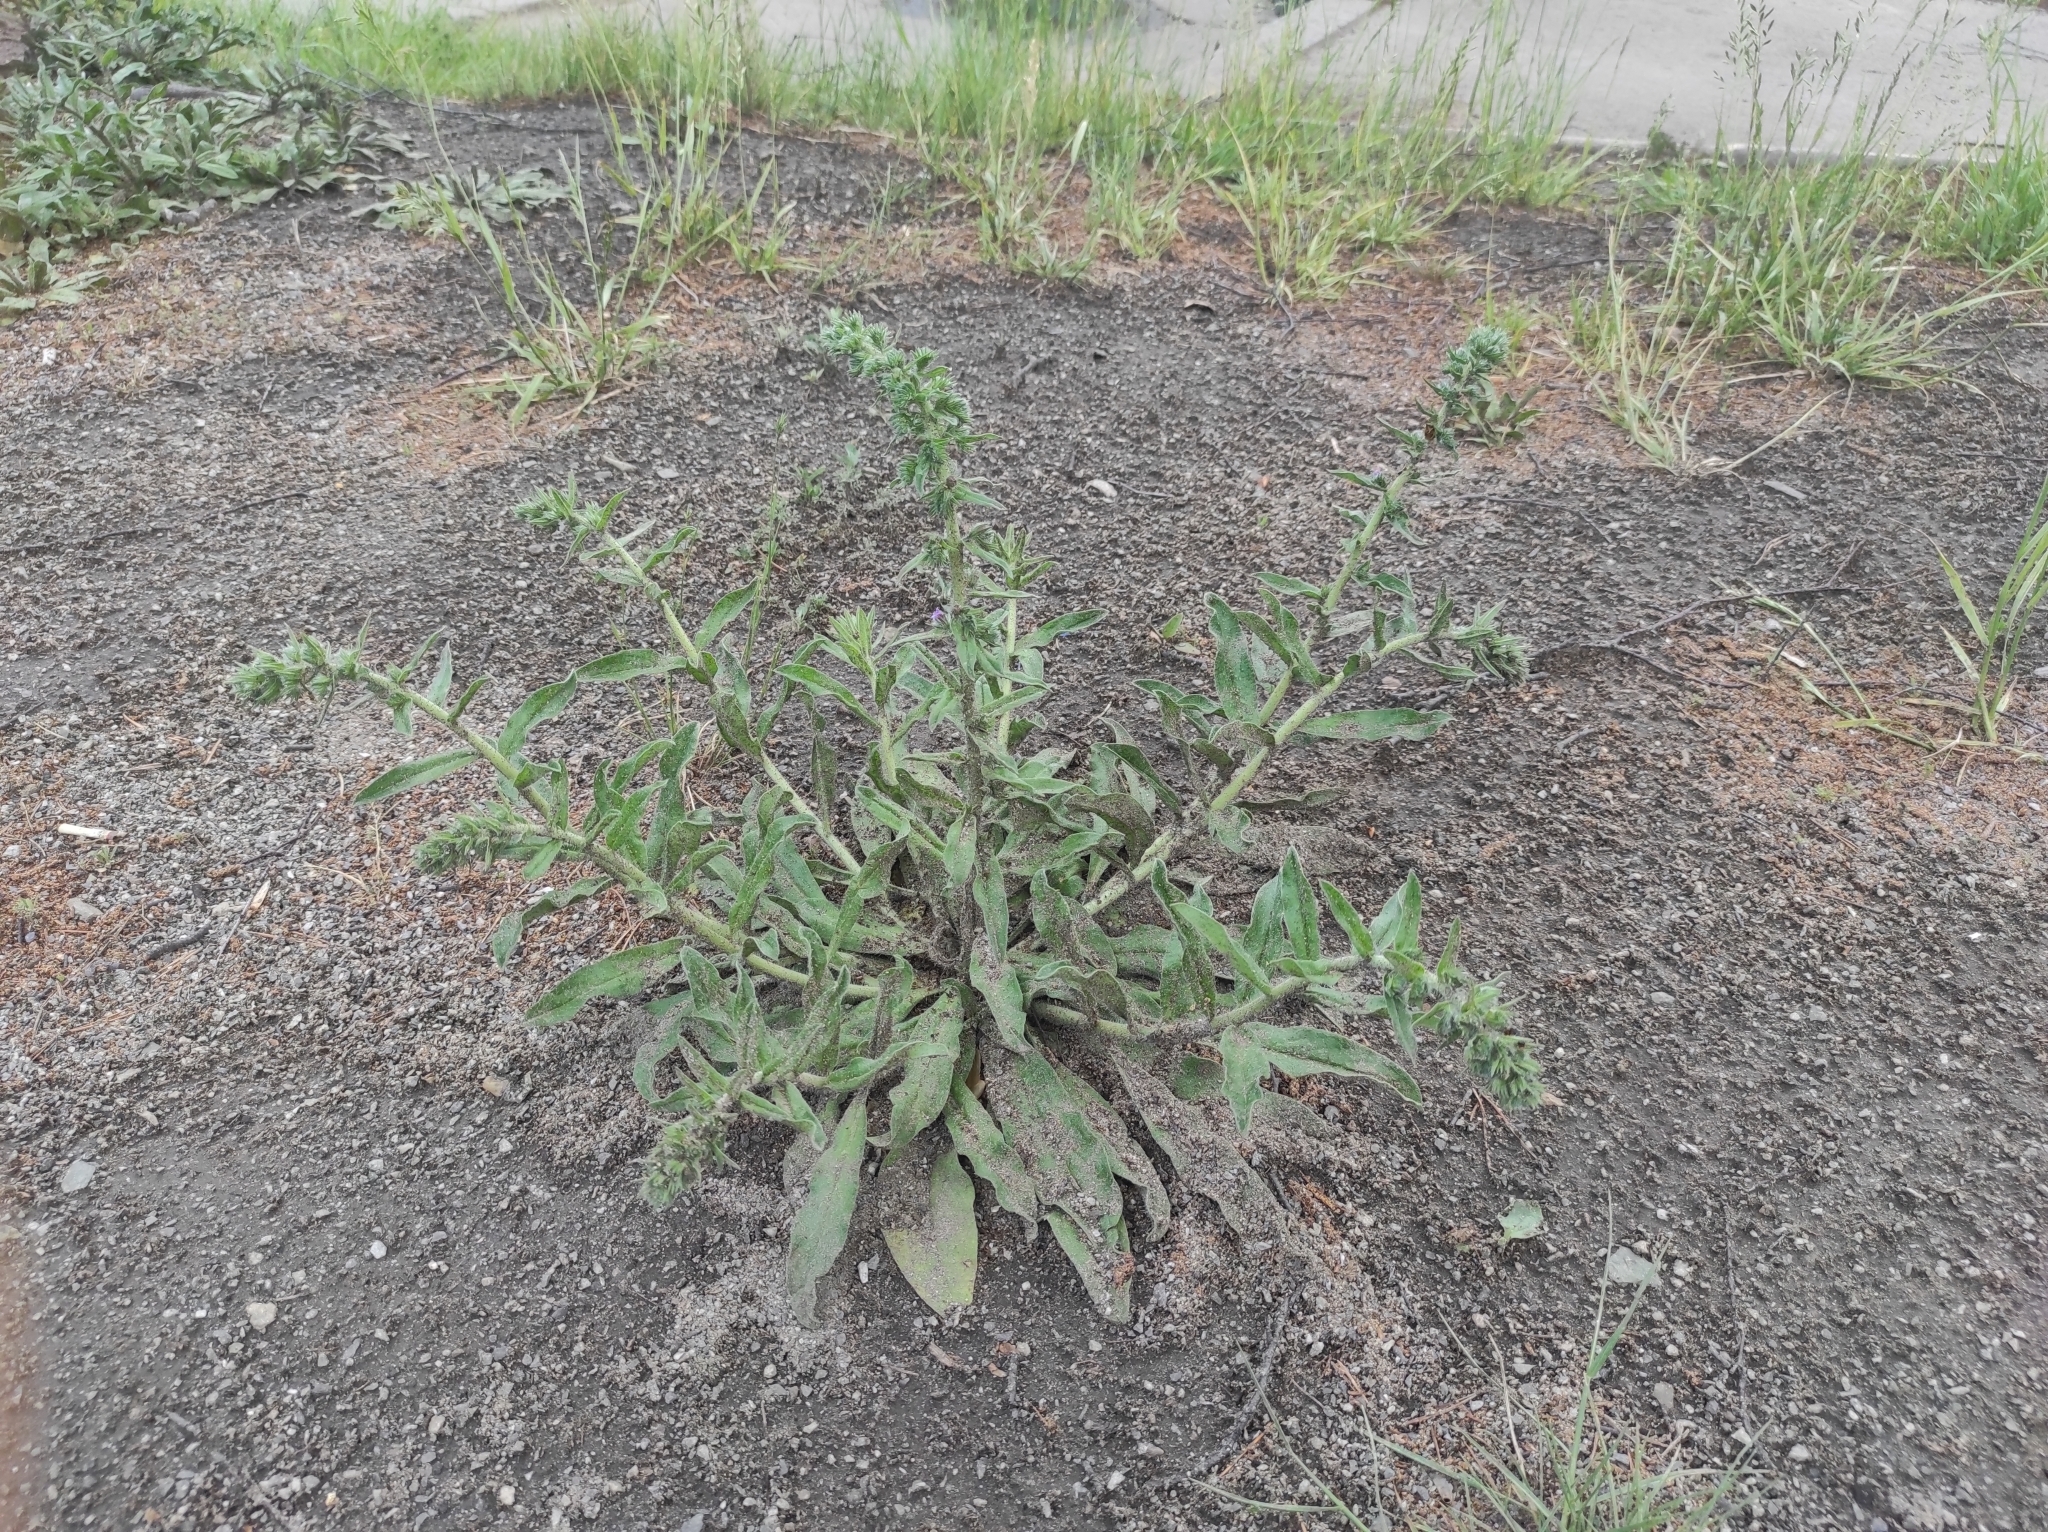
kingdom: Plantae
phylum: Tracheophyta
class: Magnoliopsida
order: Boraginales
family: Boraginaceae
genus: Echium
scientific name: Echium vulgare
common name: Common viper's bugloss
